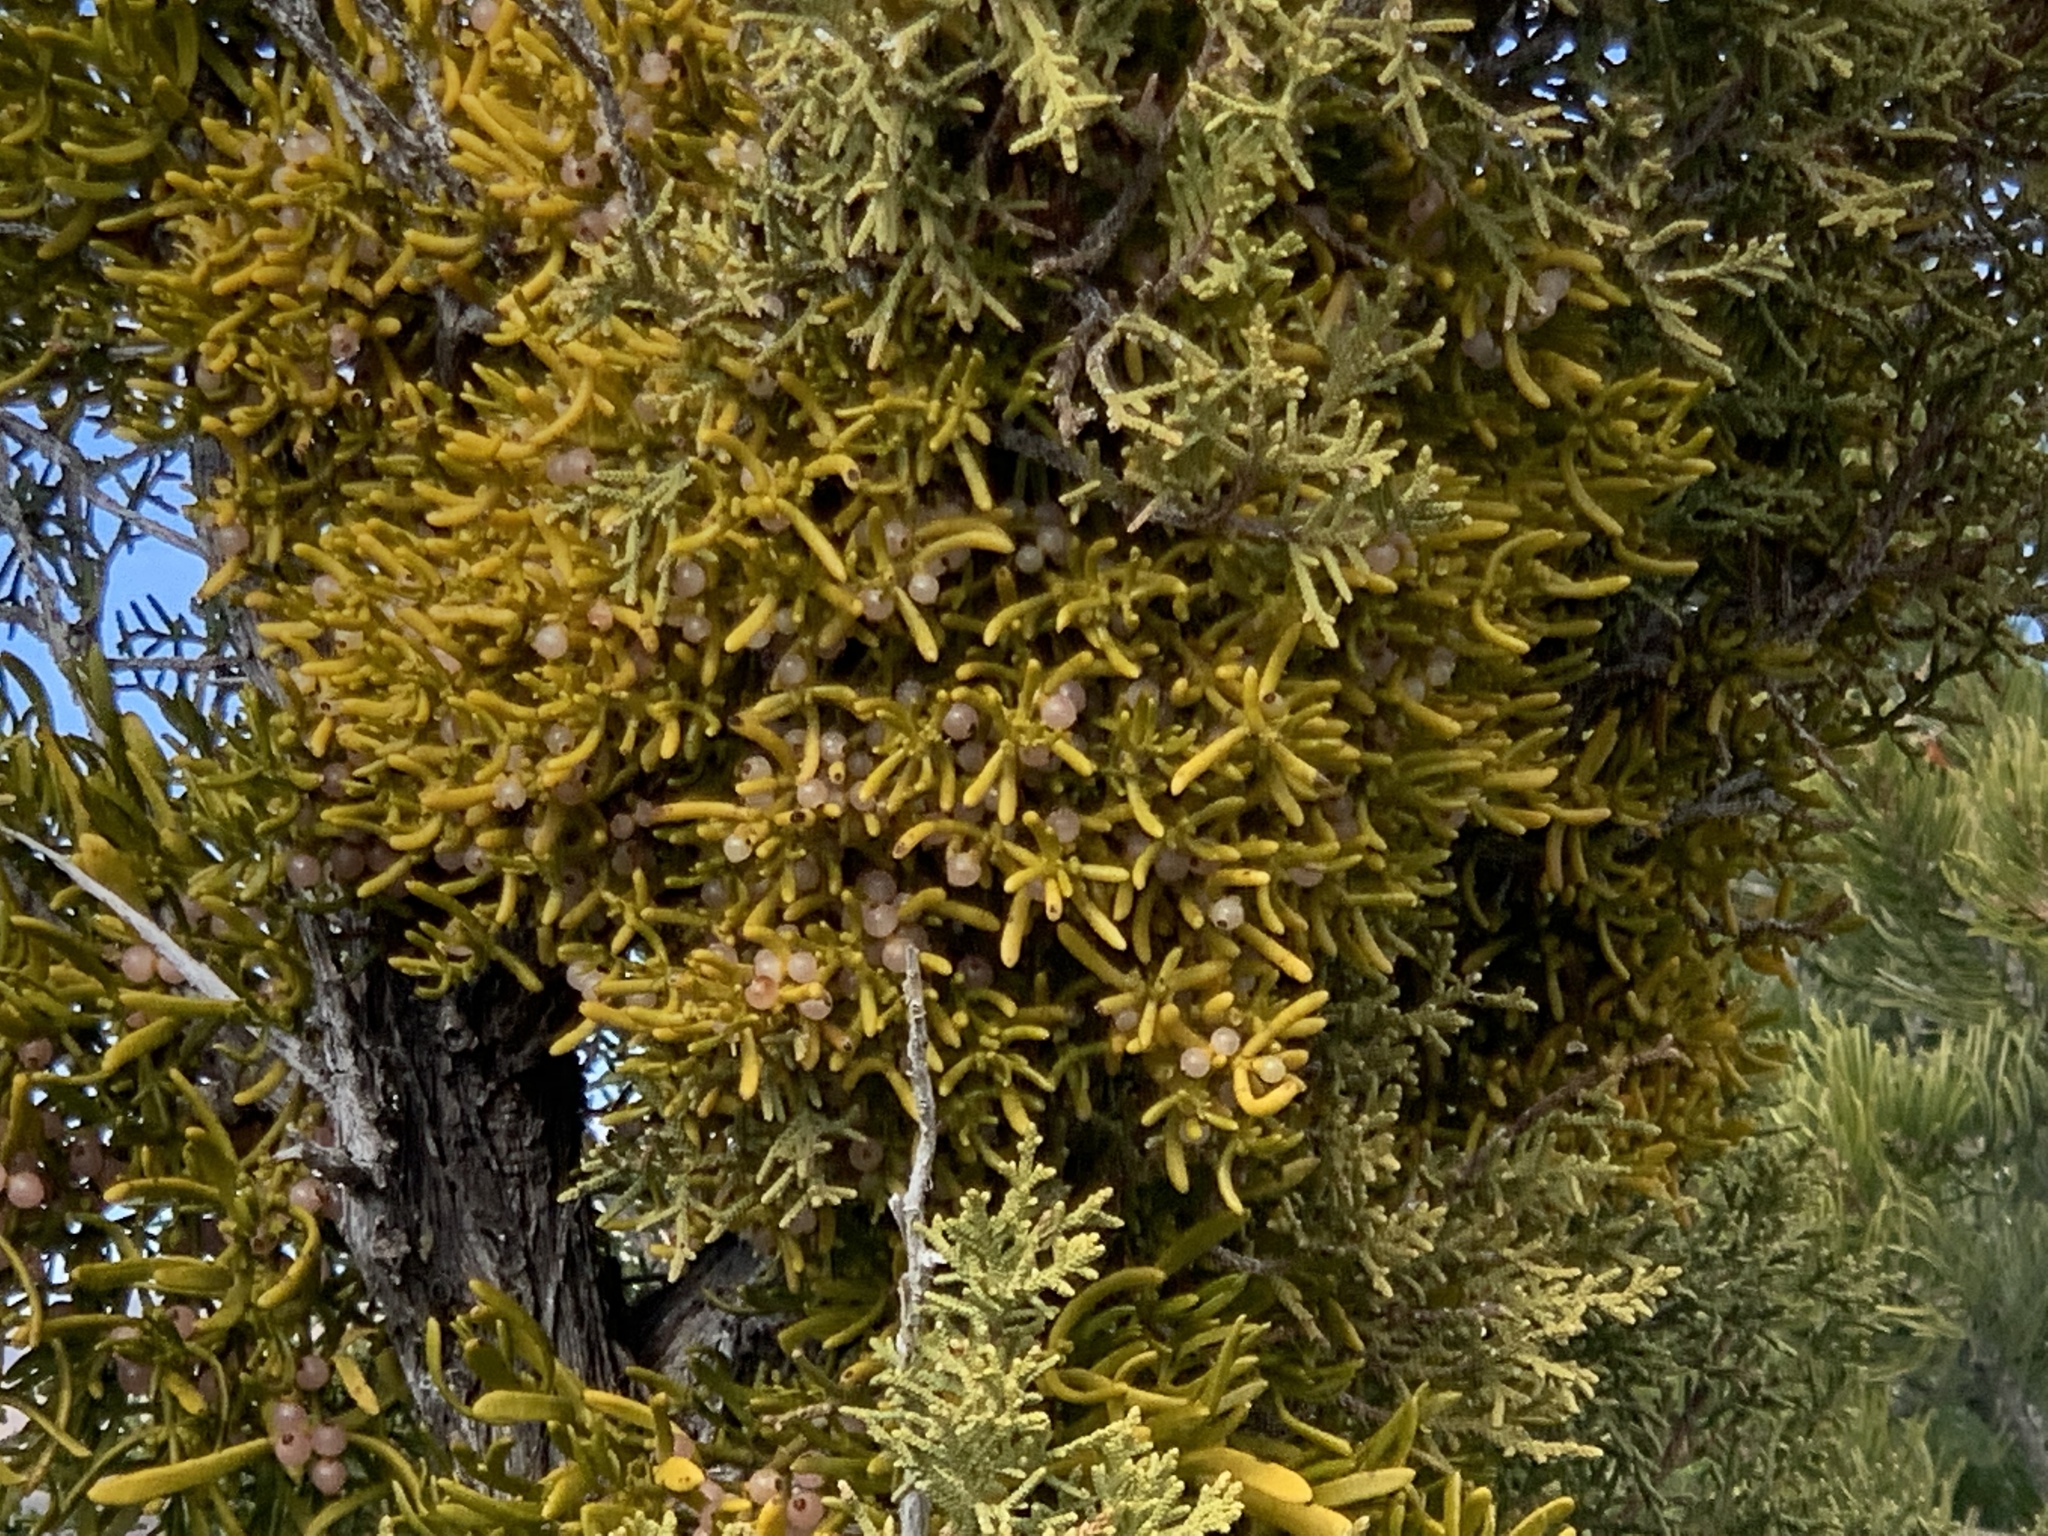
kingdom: Plantae
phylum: Tracheophyta
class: Magnoliopsida
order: Santalales
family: Viscaceae
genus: Phoradendron
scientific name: Phoradendron hawksworthii
